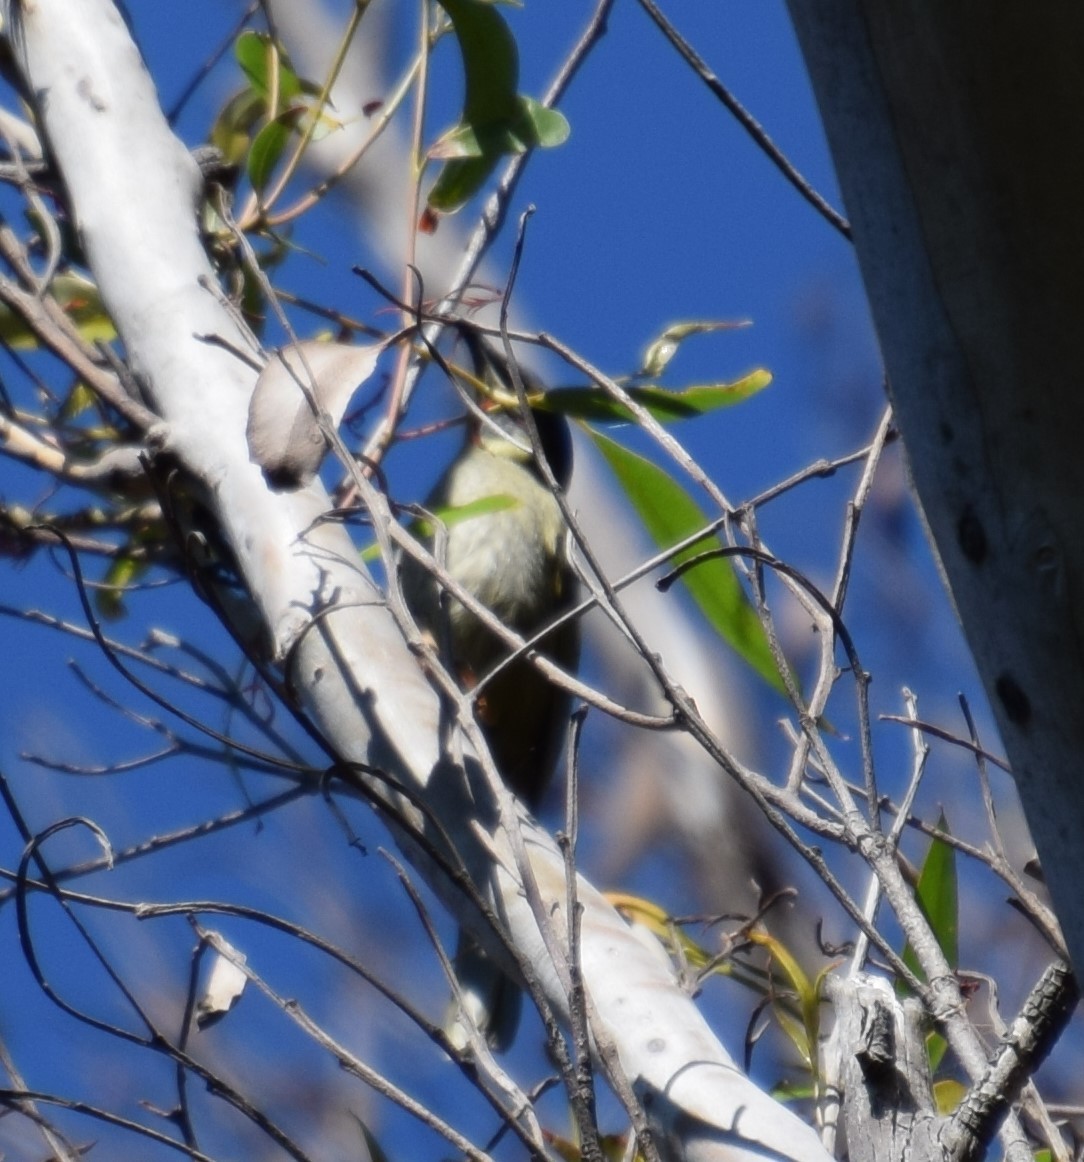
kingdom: Animalia
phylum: Chordata
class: Aves
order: Passeriformes
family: Meliphagidae
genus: Meliphaga
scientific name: Meliphaga lewinii
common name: Lewin's honeyeater
